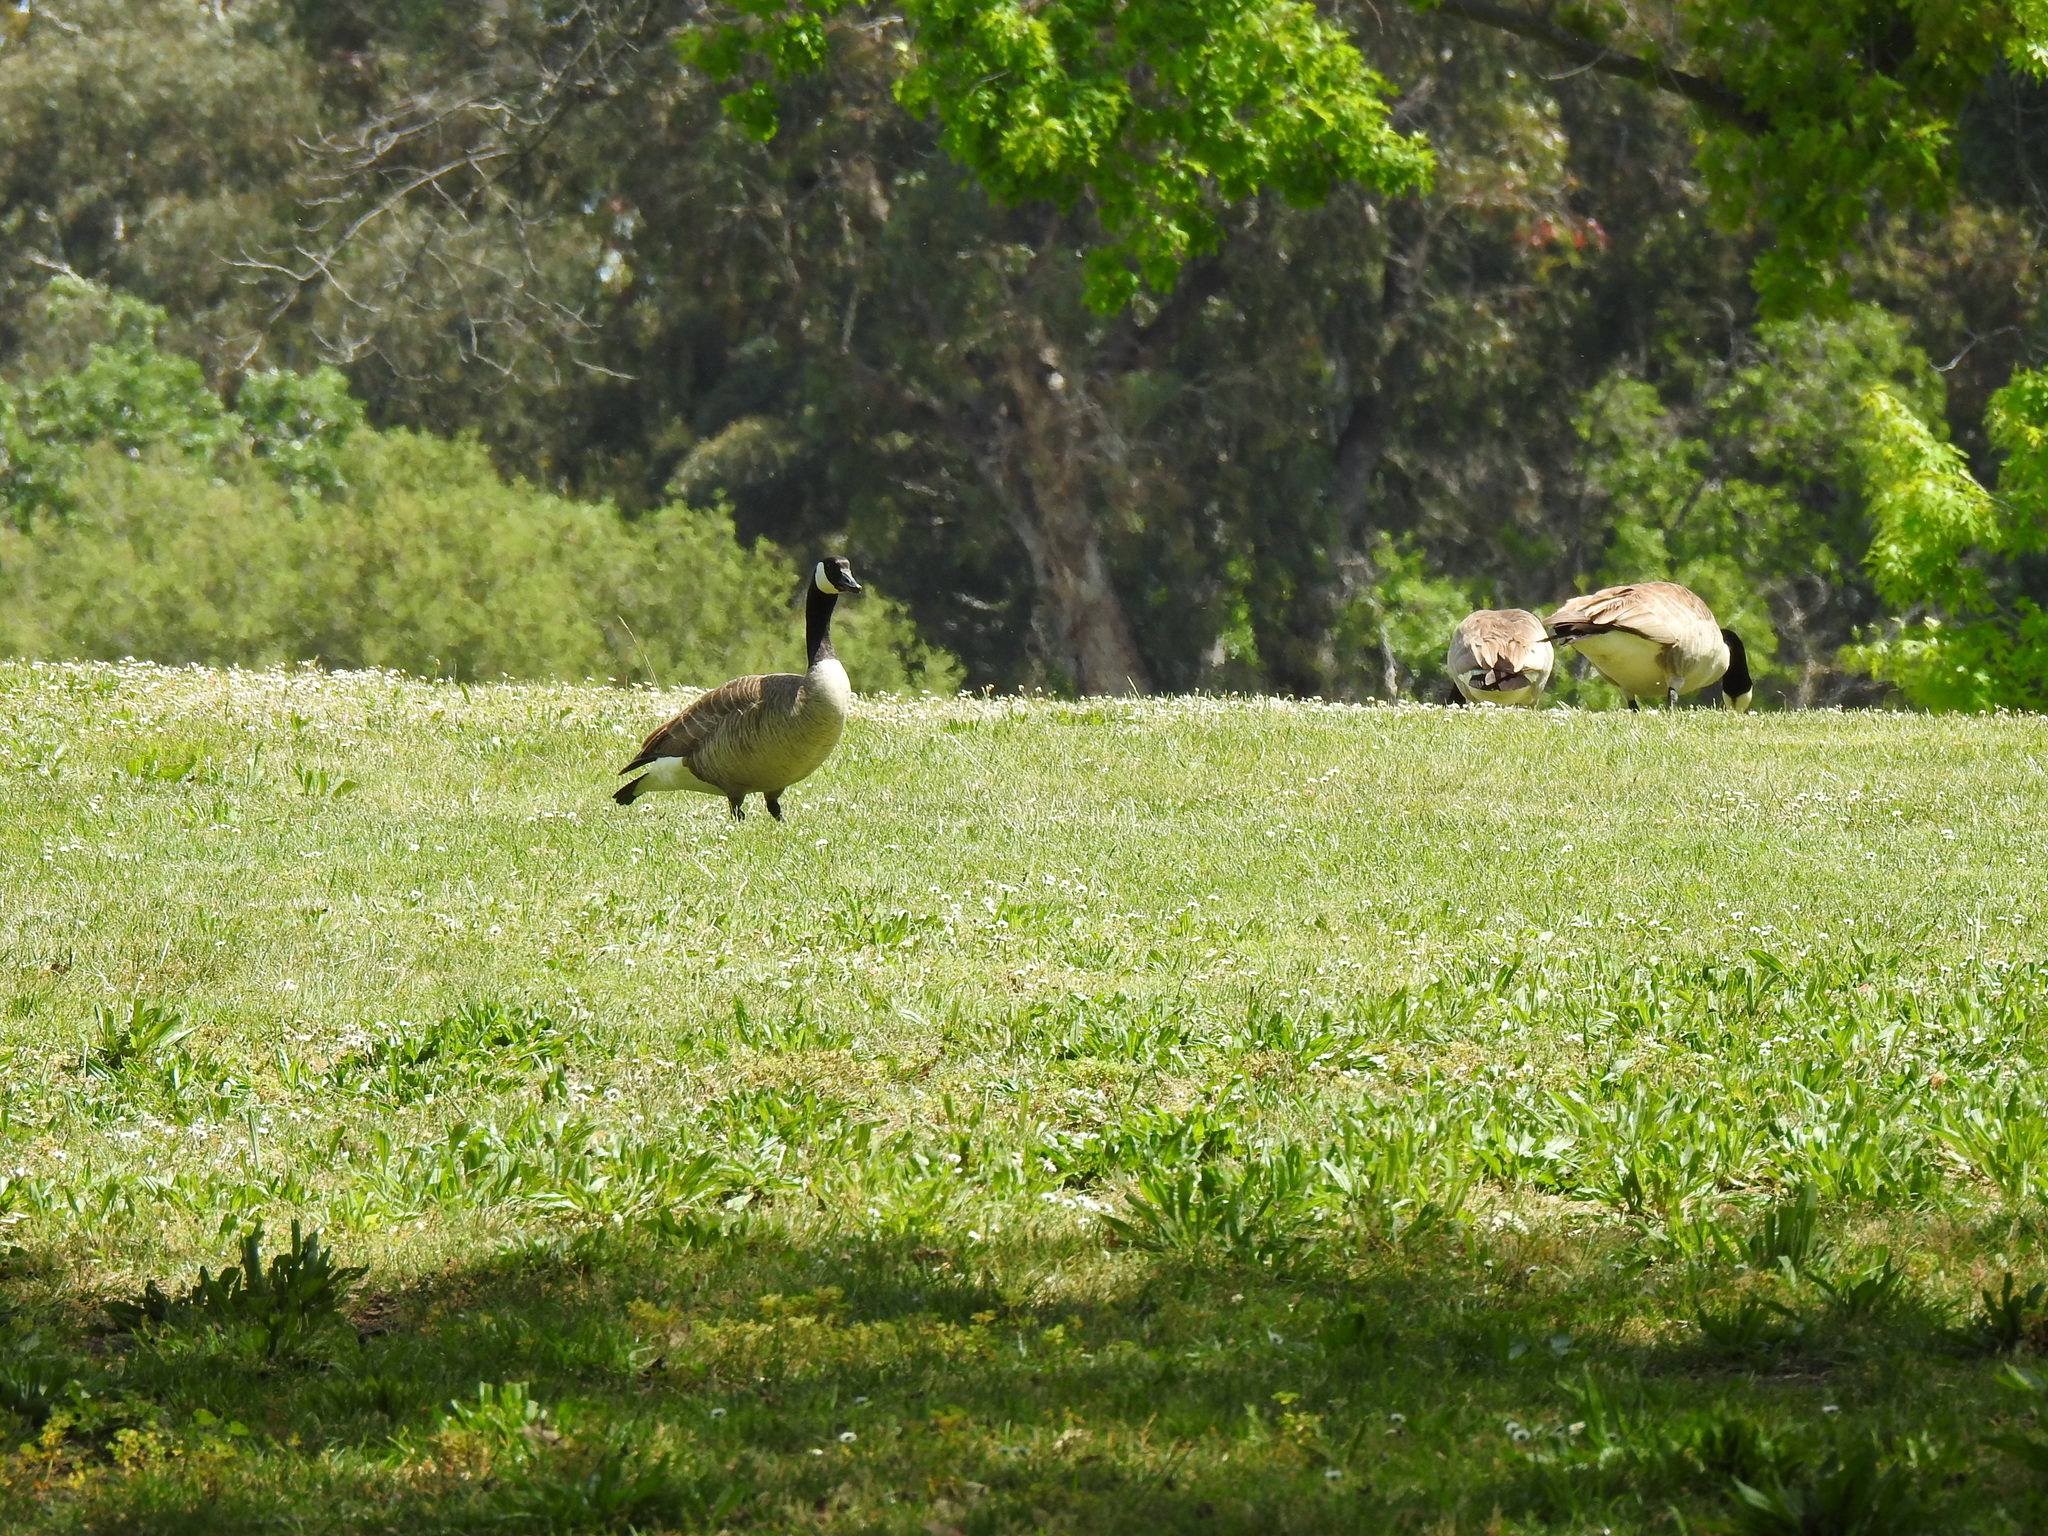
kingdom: Animalia
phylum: Chordata
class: Aves
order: Anseriformes
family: Anatidae
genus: Branta
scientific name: Branta canadensis
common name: Canada goose
